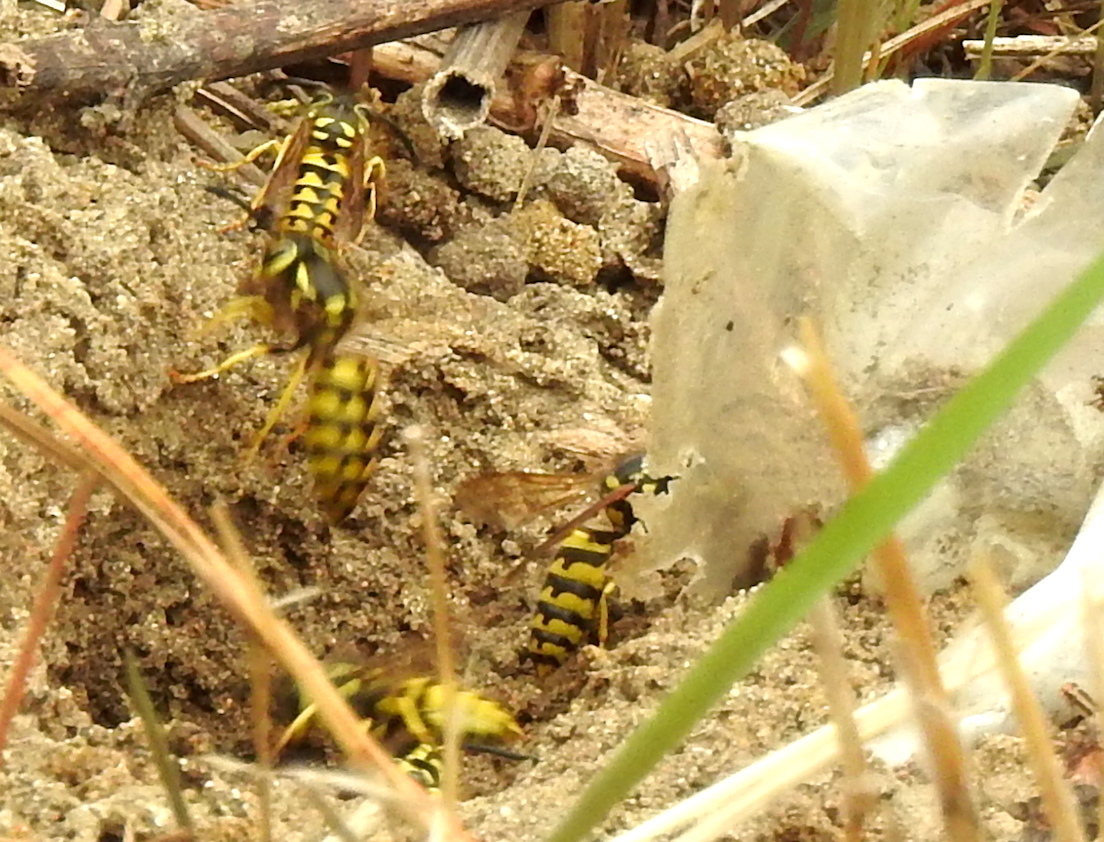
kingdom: Animalia
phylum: Arthropoda
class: Insecta
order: Hymenoptera
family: Vespidae
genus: Vespula
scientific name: Vespula pensylvanica
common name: Western yellowjacket
